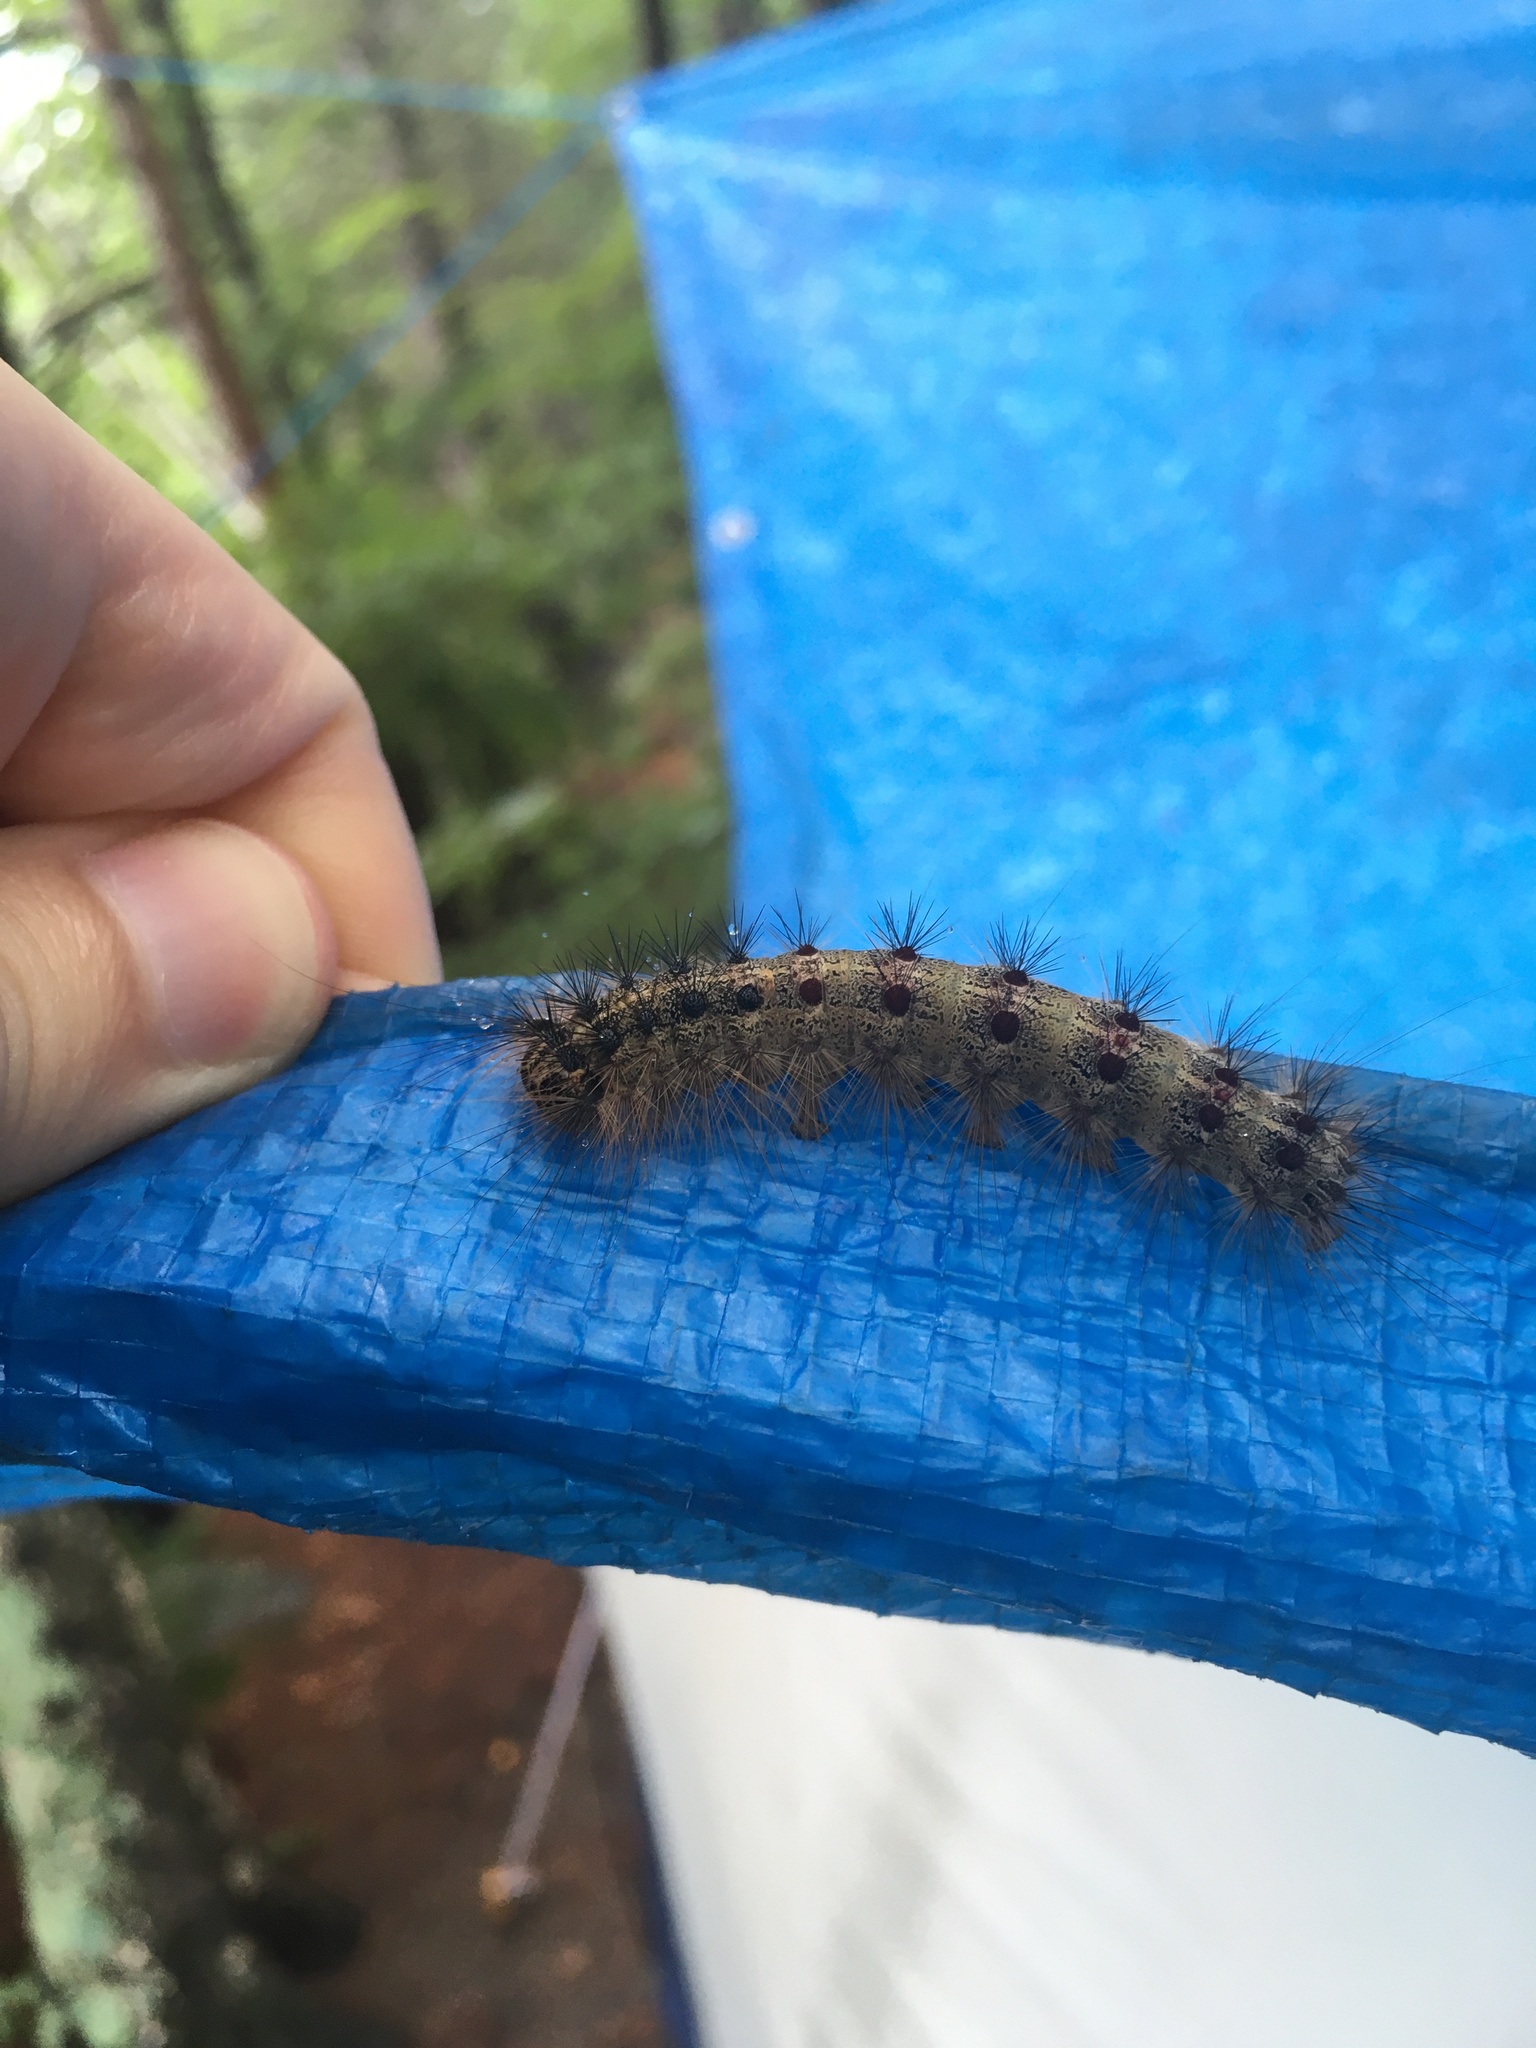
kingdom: Animalia
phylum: Arthropoda
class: Insecta
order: Lepidoptera
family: Erebidae
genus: Lymantria
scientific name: Lymantria dispar
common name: Gypsy moth
